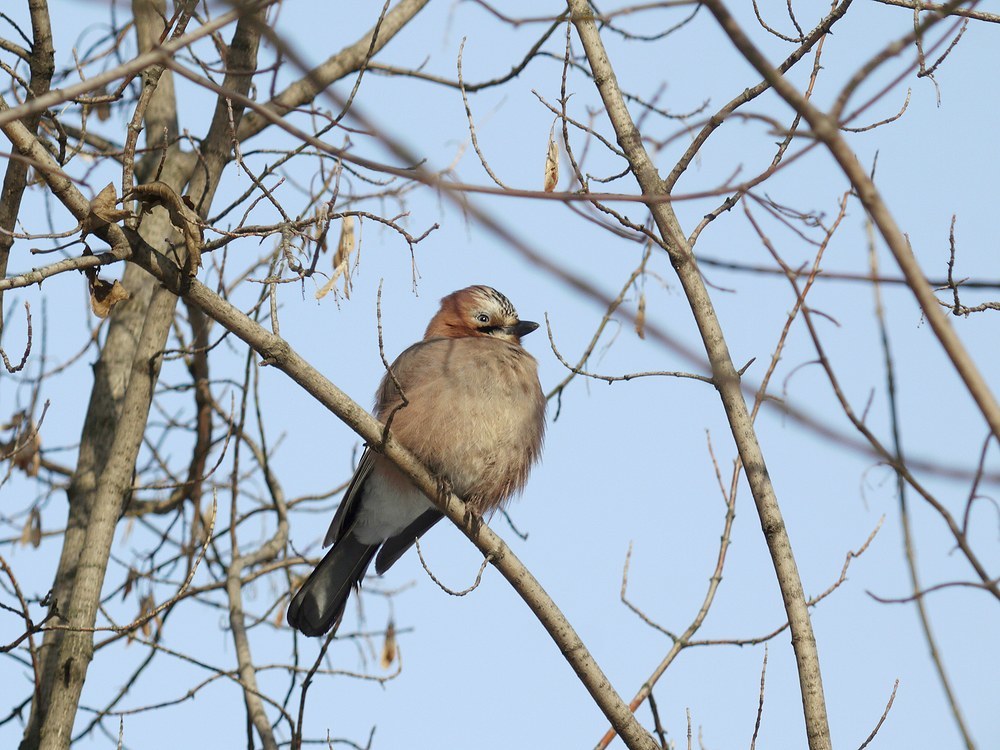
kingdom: Animalia
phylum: Chordata
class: Aves
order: Passeriformes
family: Corvidae
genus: Garrulus
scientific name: Garrulus glandarius
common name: Eurasian jay
